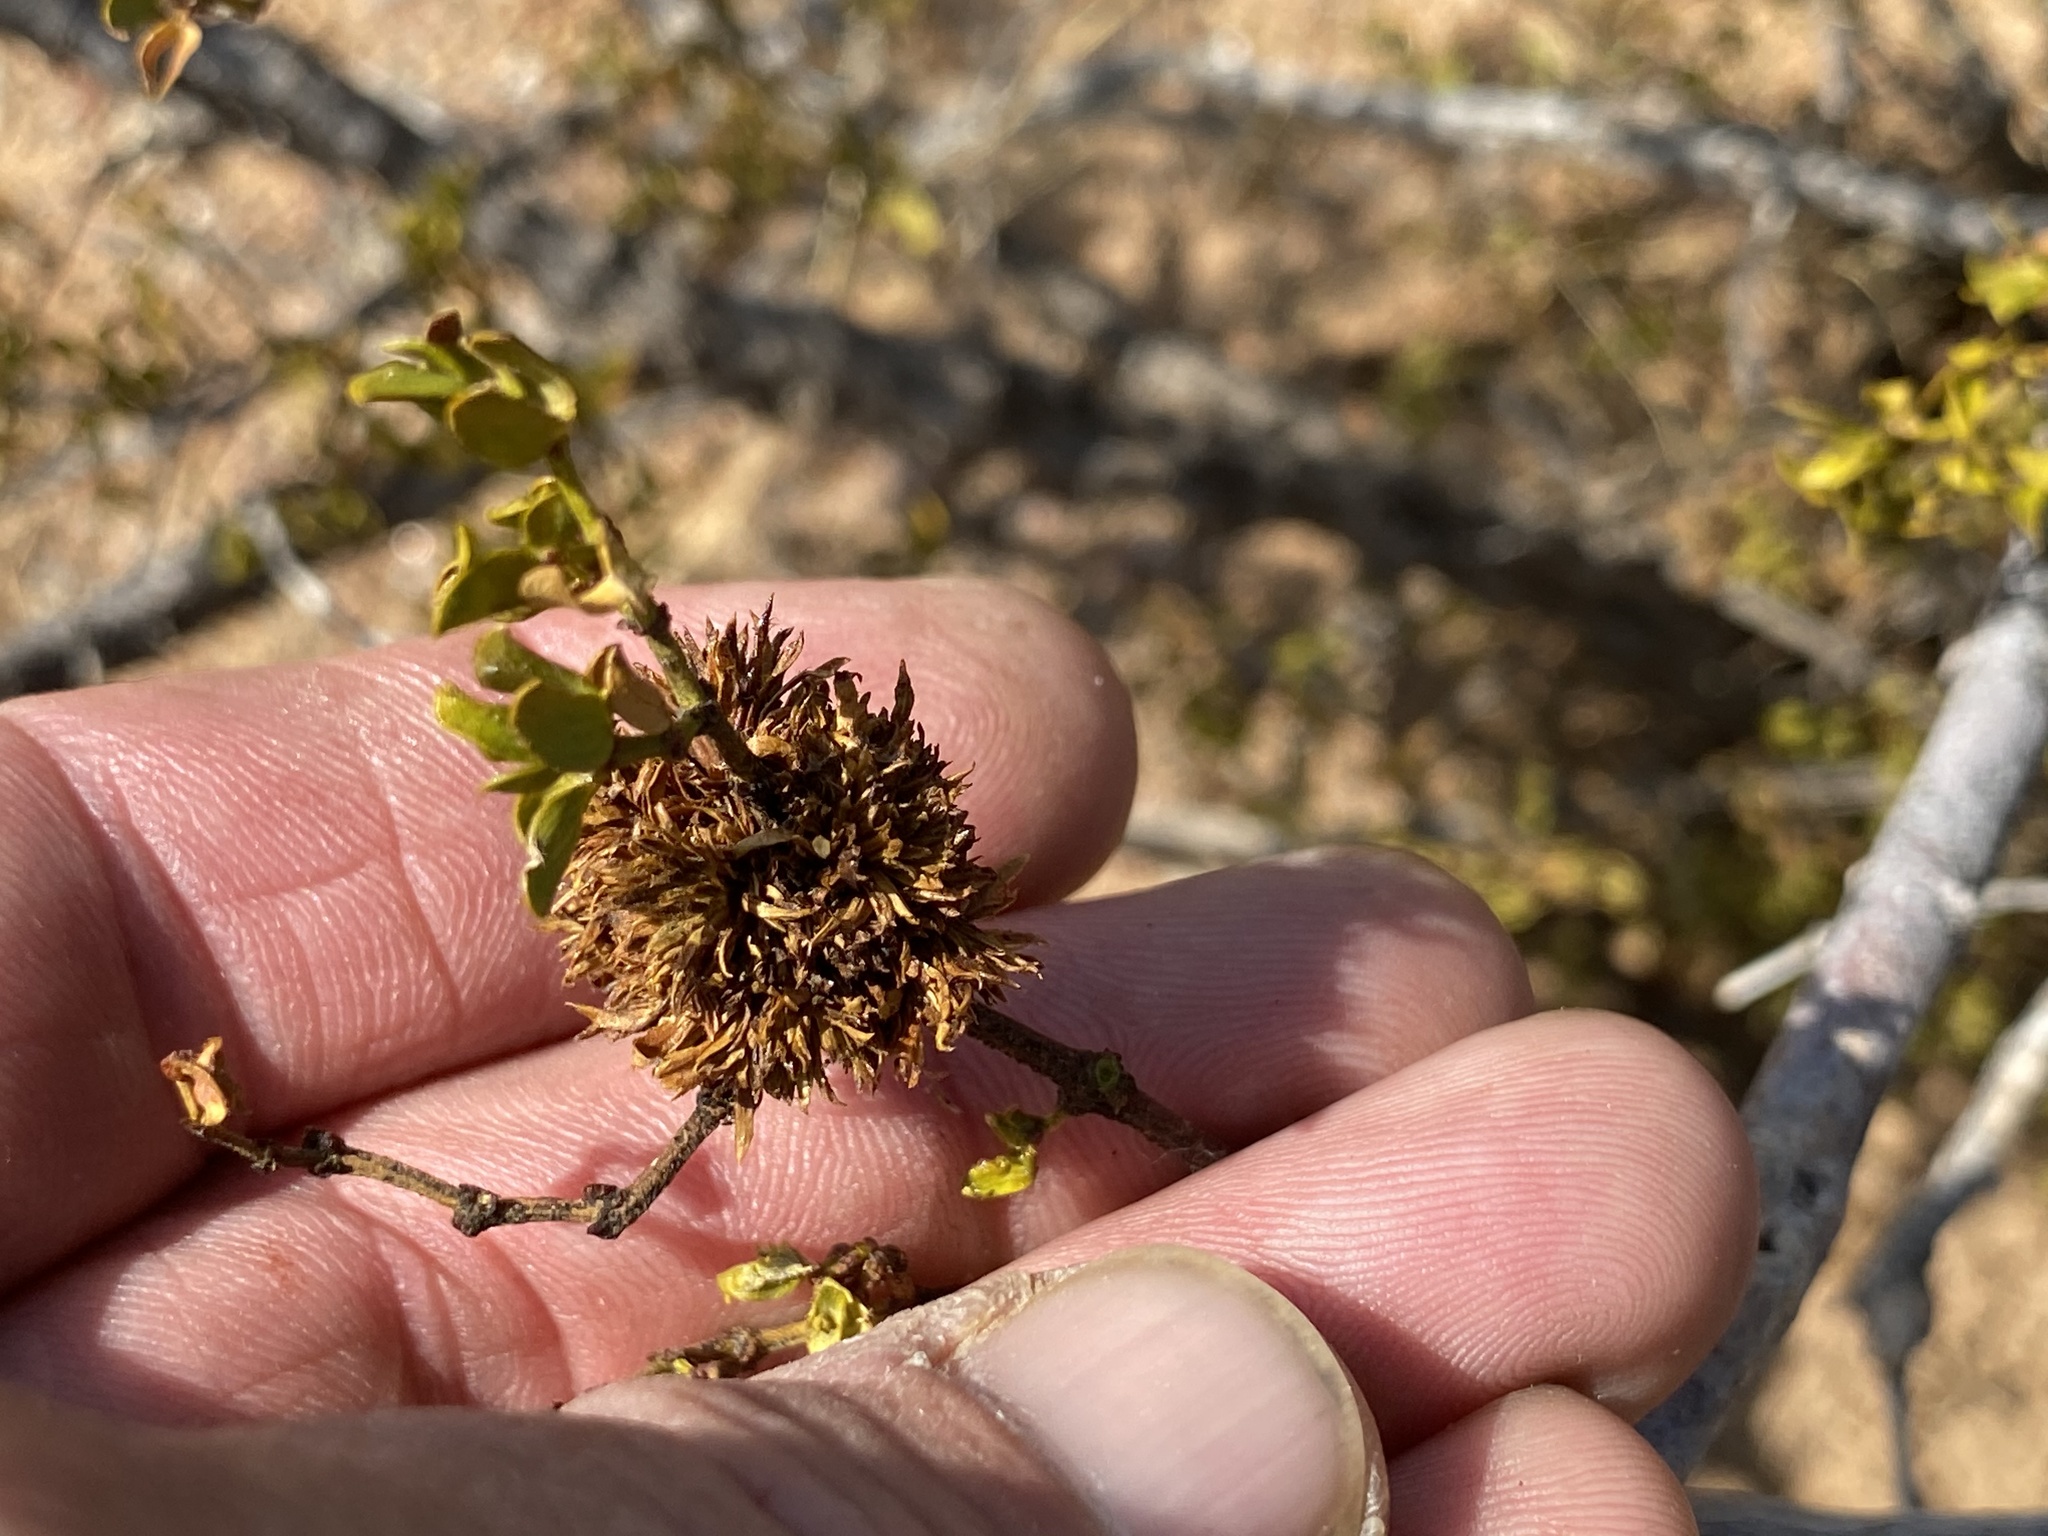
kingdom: Animalia
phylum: Arthropoda
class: Insecta
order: Diptera
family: Cecidomyiidae
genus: Asphondylia
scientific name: Asphondylia auripila
